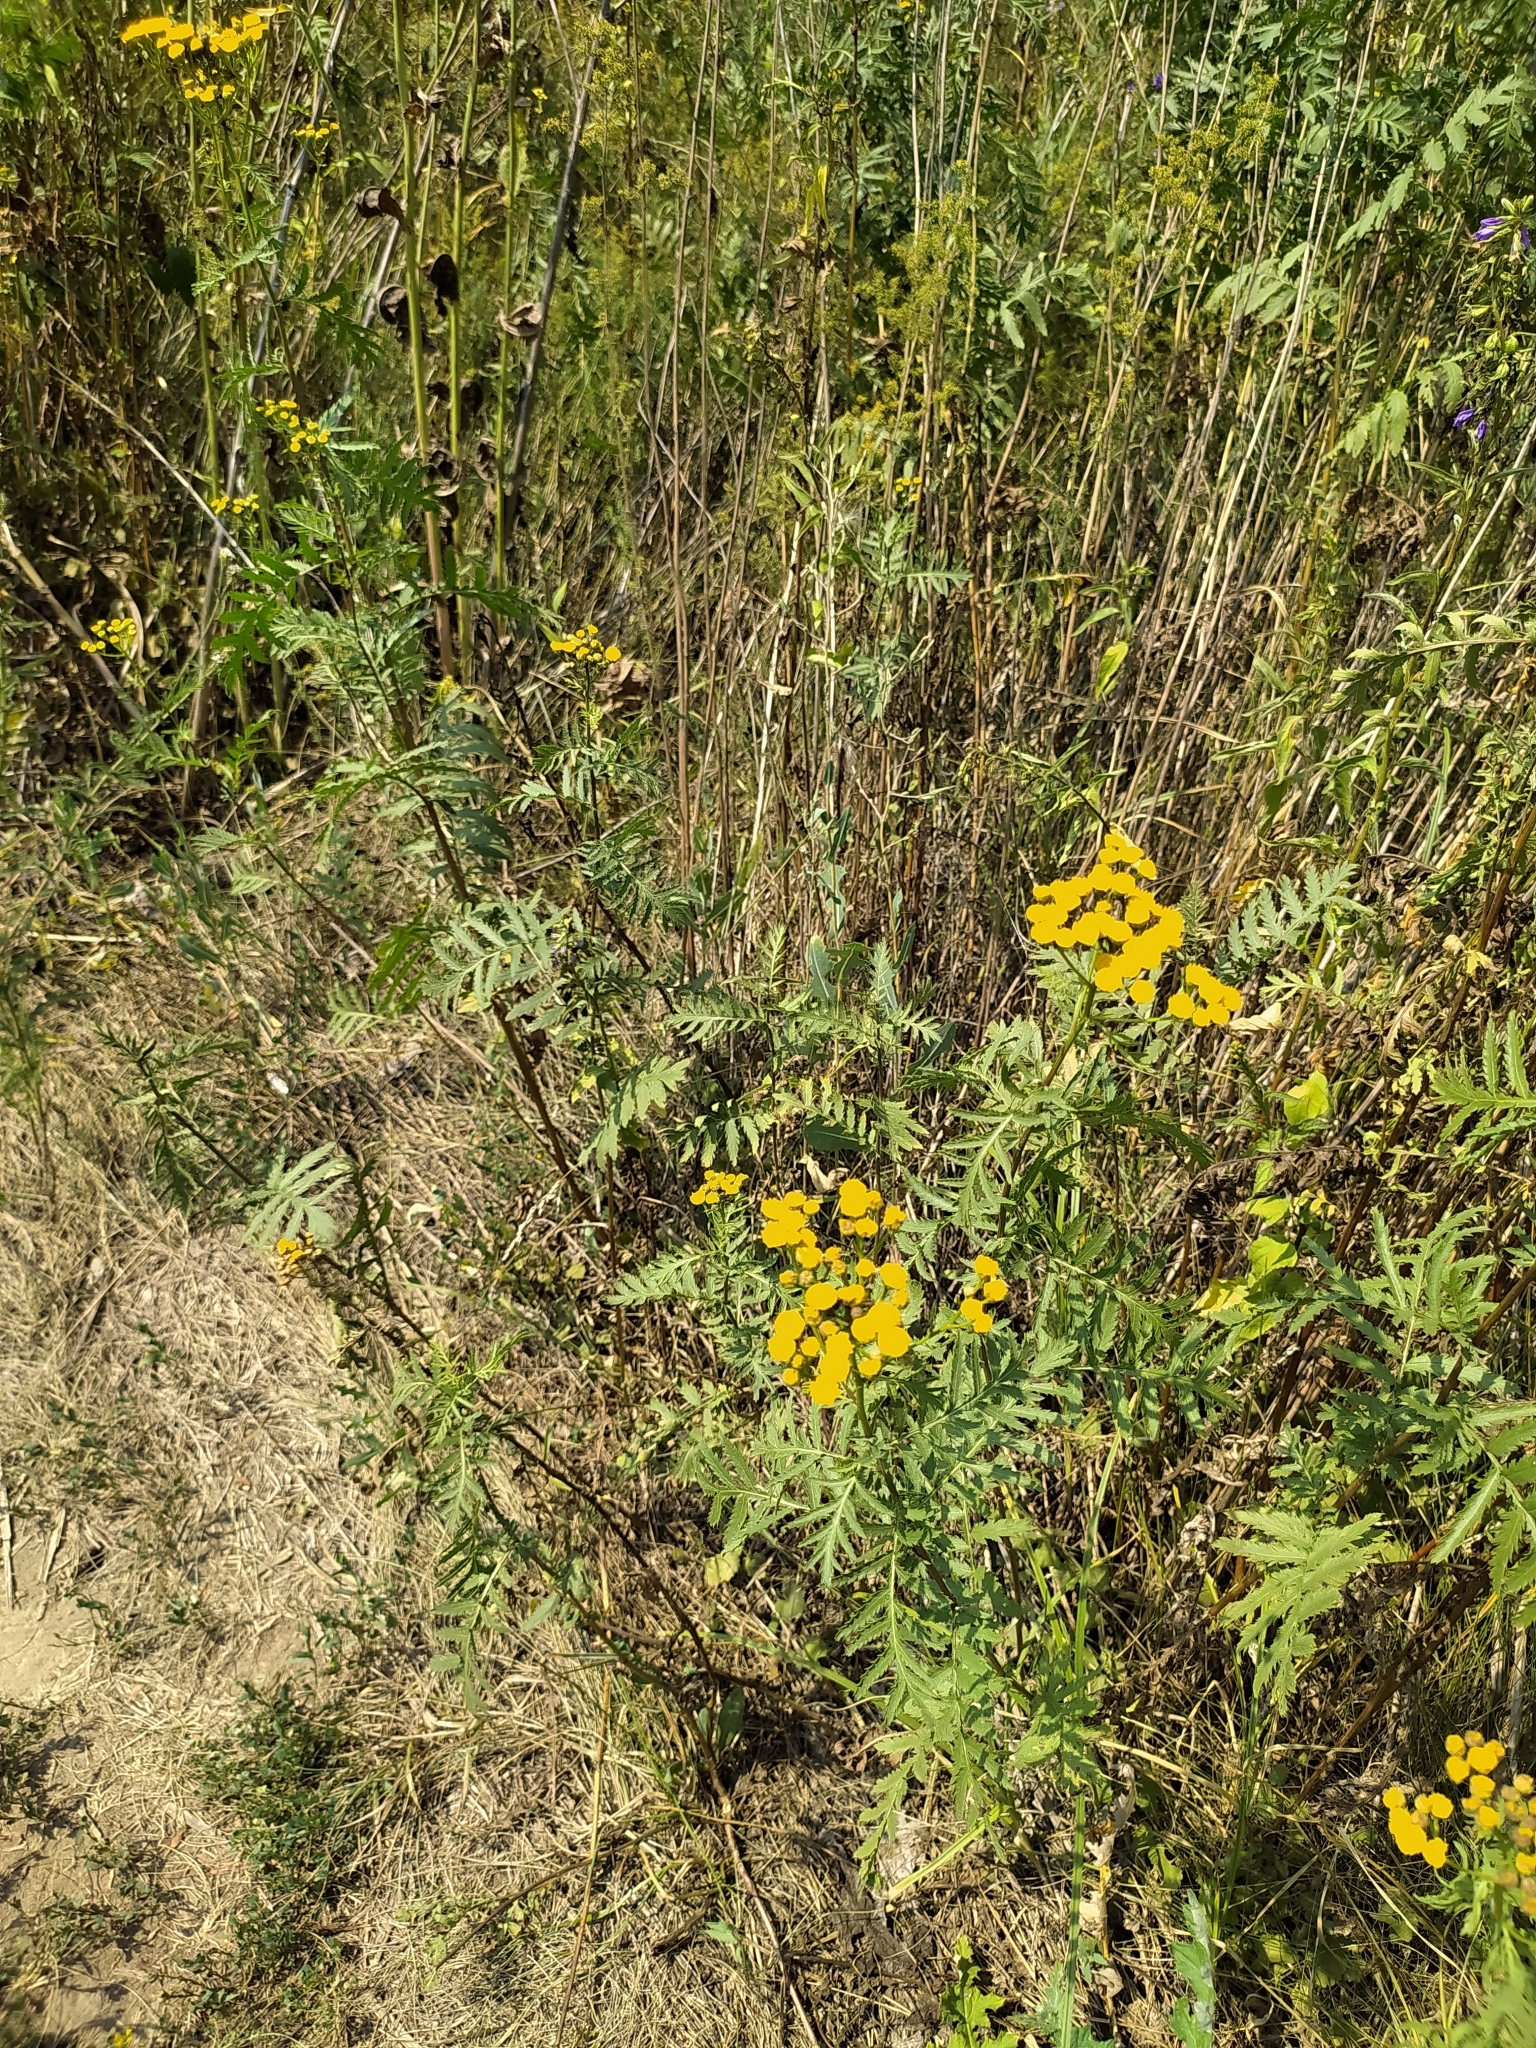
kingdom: Plantae
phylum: Tracheophyta
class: Magnoliopsida
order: Asterales
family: Asteraceae
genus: Tanacetum
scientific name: Tanacetum vulgare
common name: Common tansy
